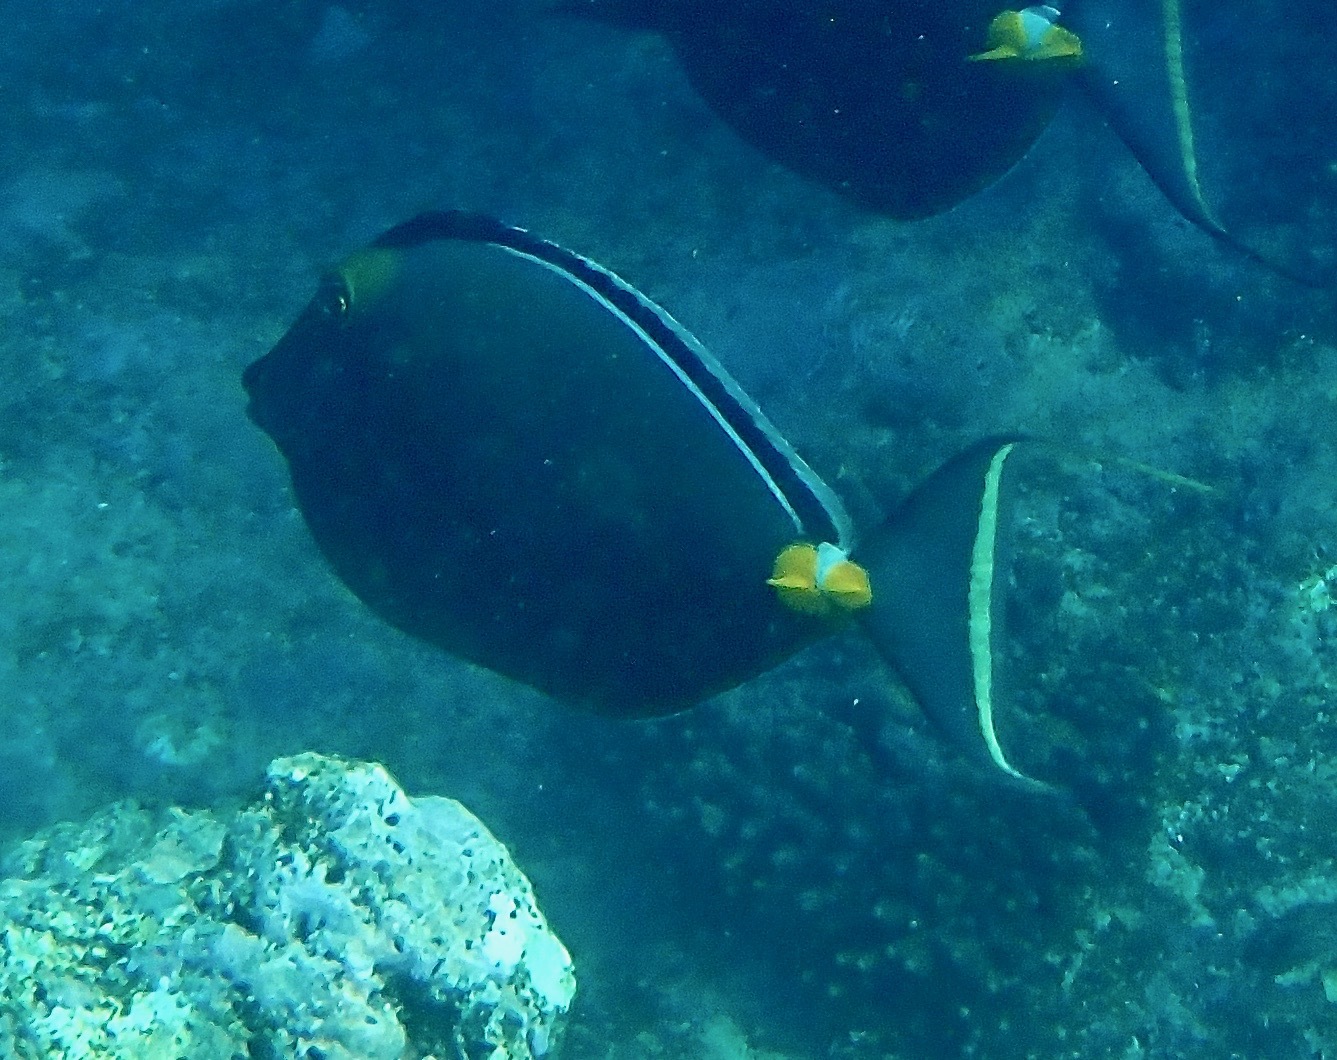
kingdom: Animalia
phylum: Chordata
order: Perciformes
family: Acanthuridae
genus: Naso
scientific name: Naso lituratus
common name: Orangespine unicornfish
